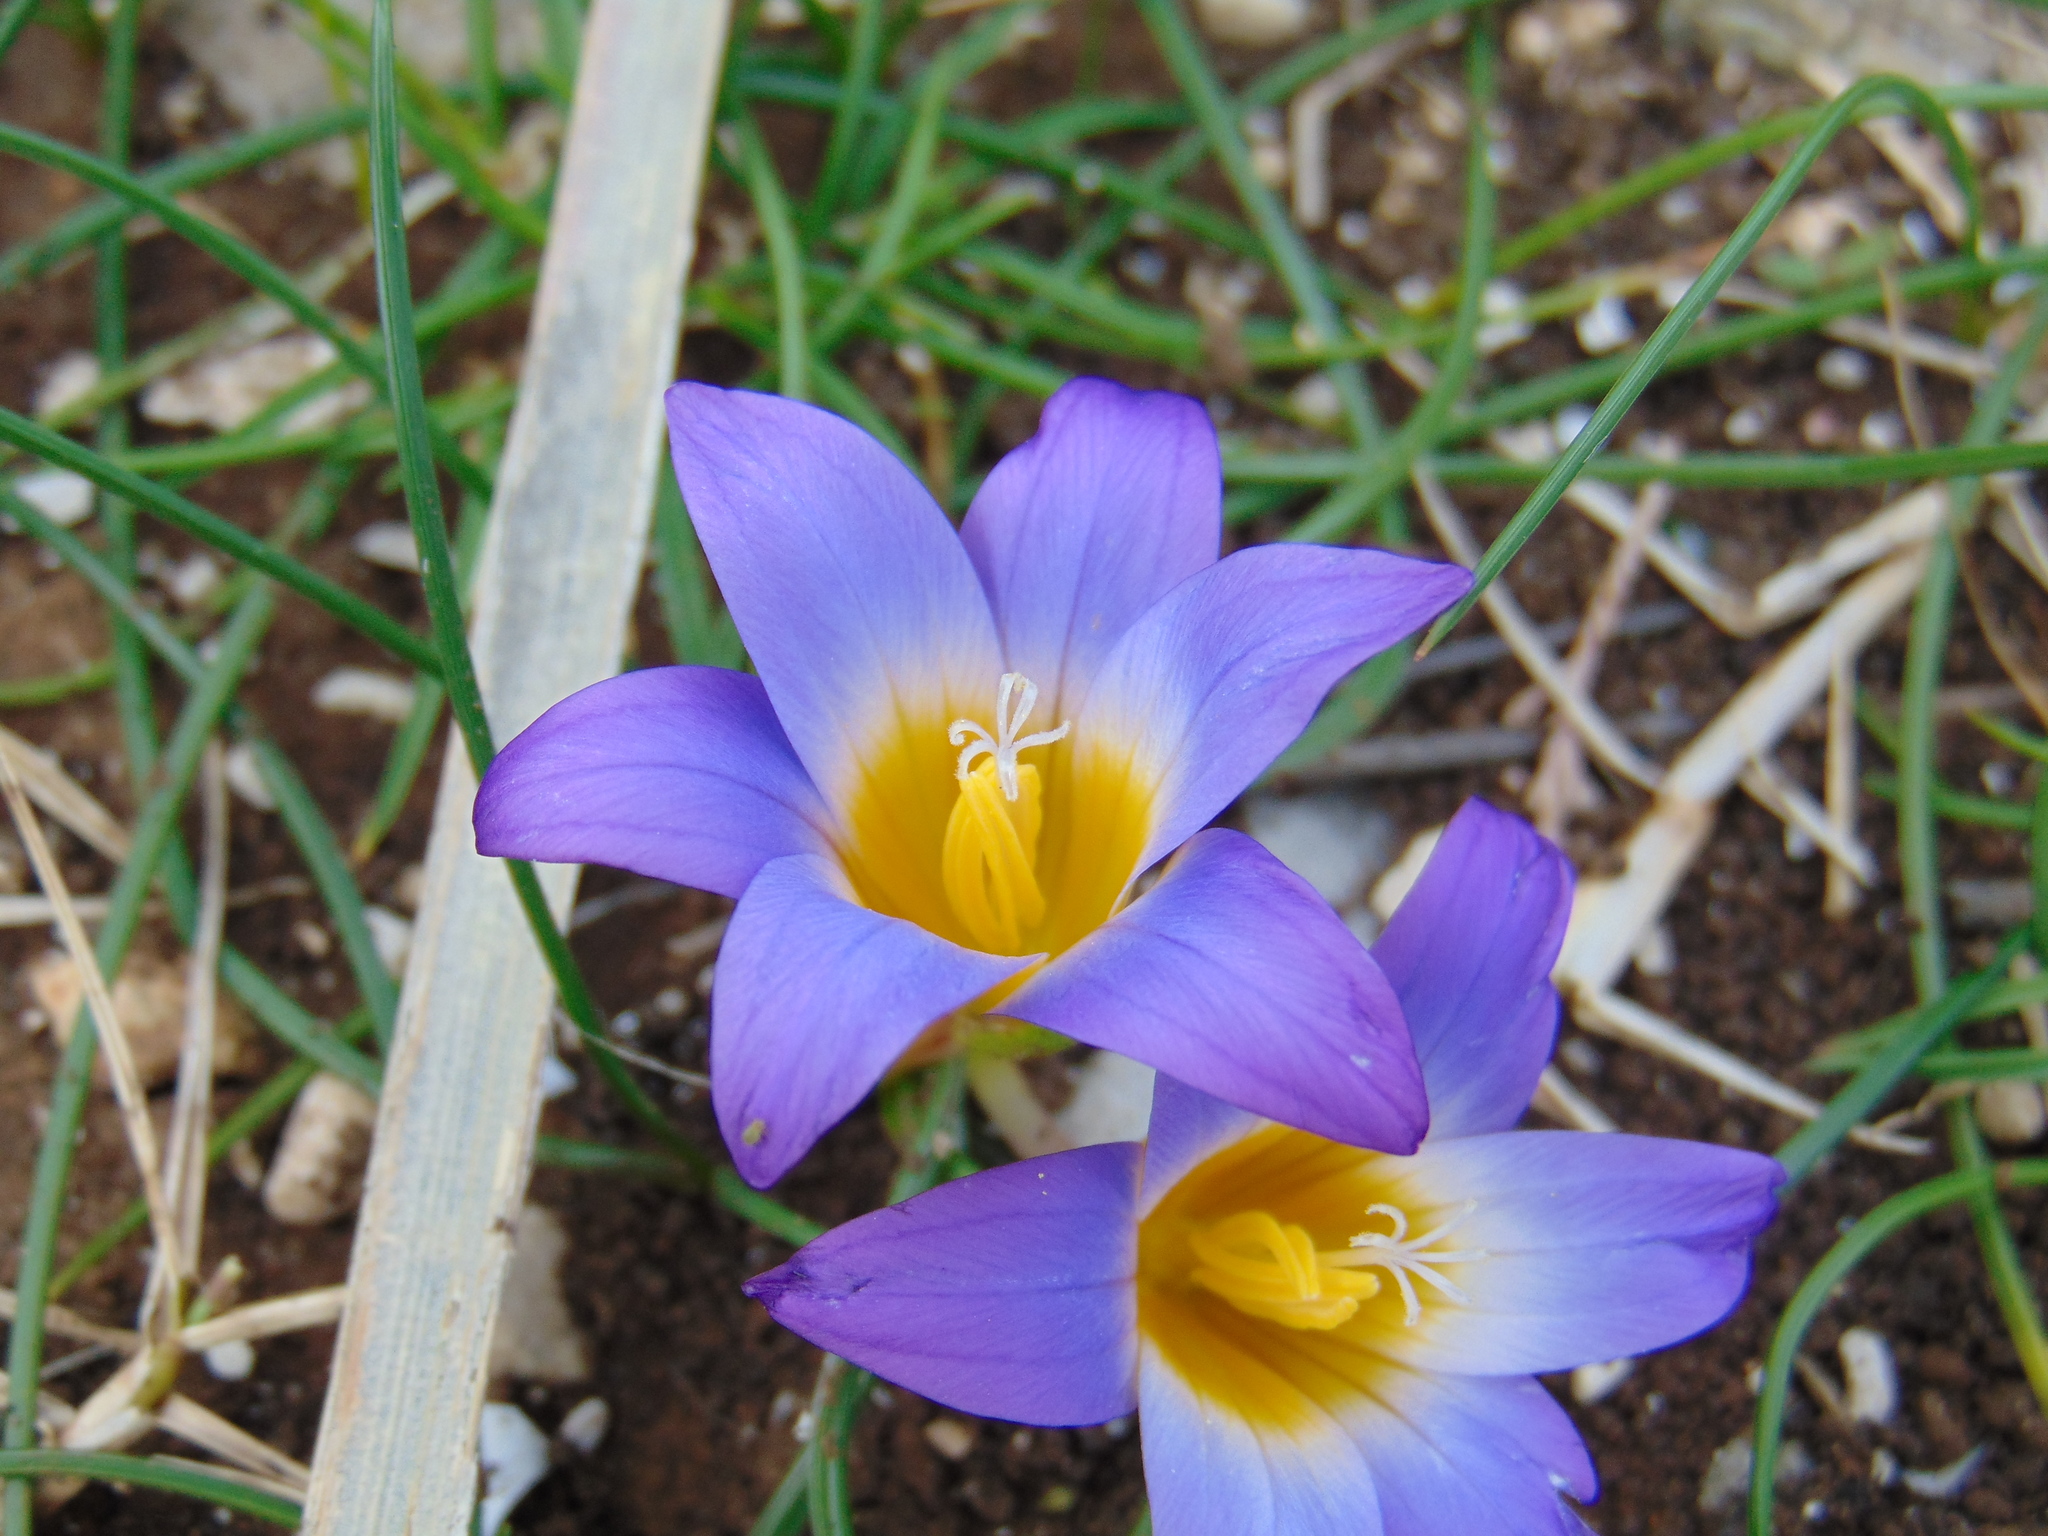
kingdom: Plantae
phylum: Tracheophyta
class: Liliopsida
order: Asparagales
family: Iridaceae
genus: Romulea
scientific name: Romulea bulbocodium
